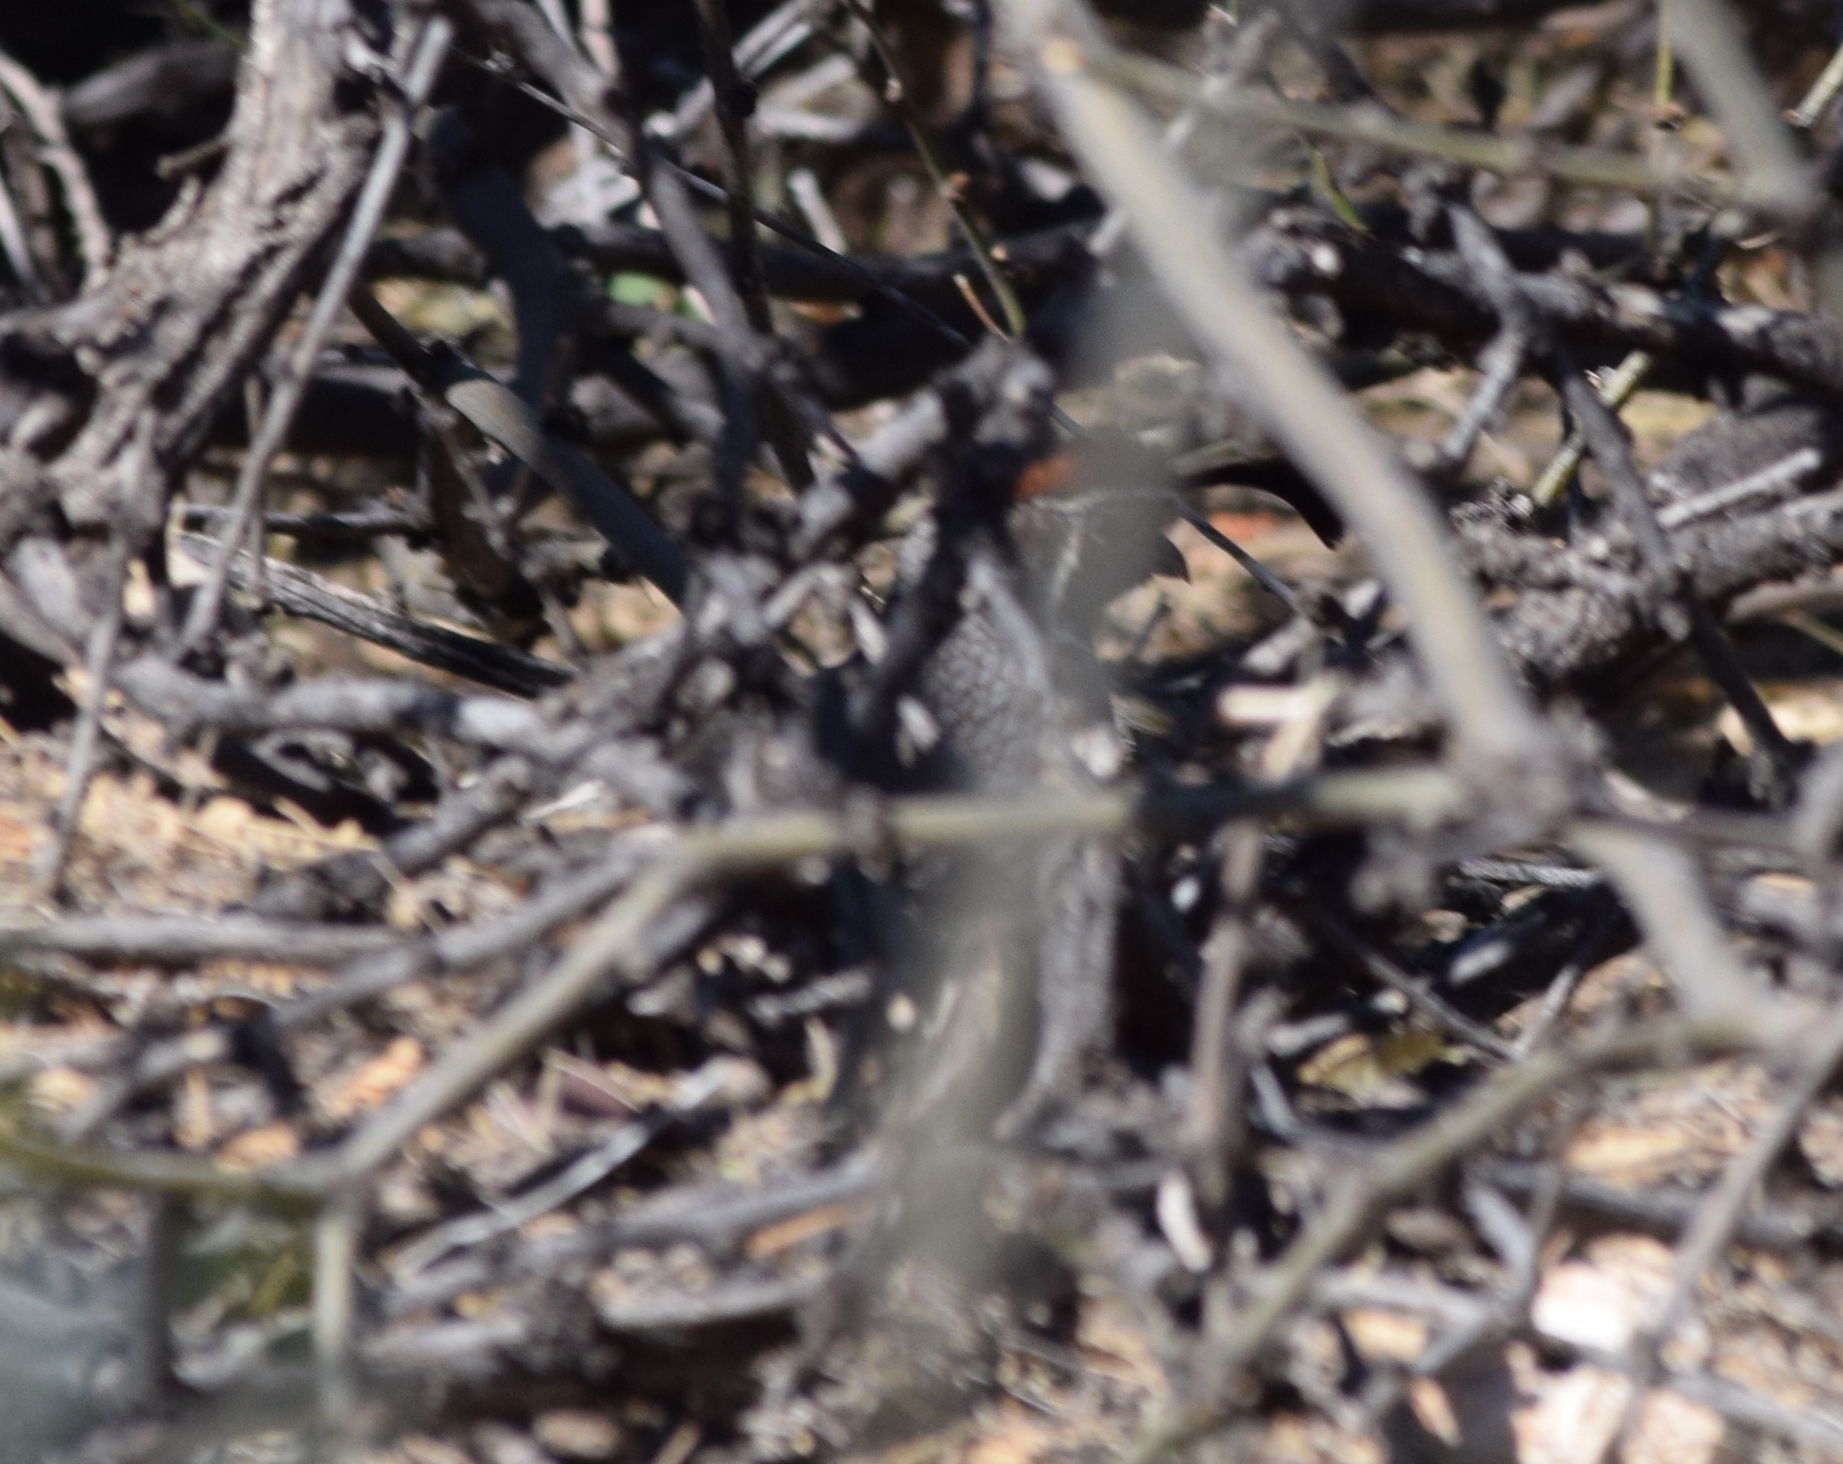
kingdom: Animalia
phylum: Chordata
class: Aves
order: Galliformes
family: Odontophoridae
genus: Callipepla
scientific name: Callipepla gambelii
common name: Gambel's quail
